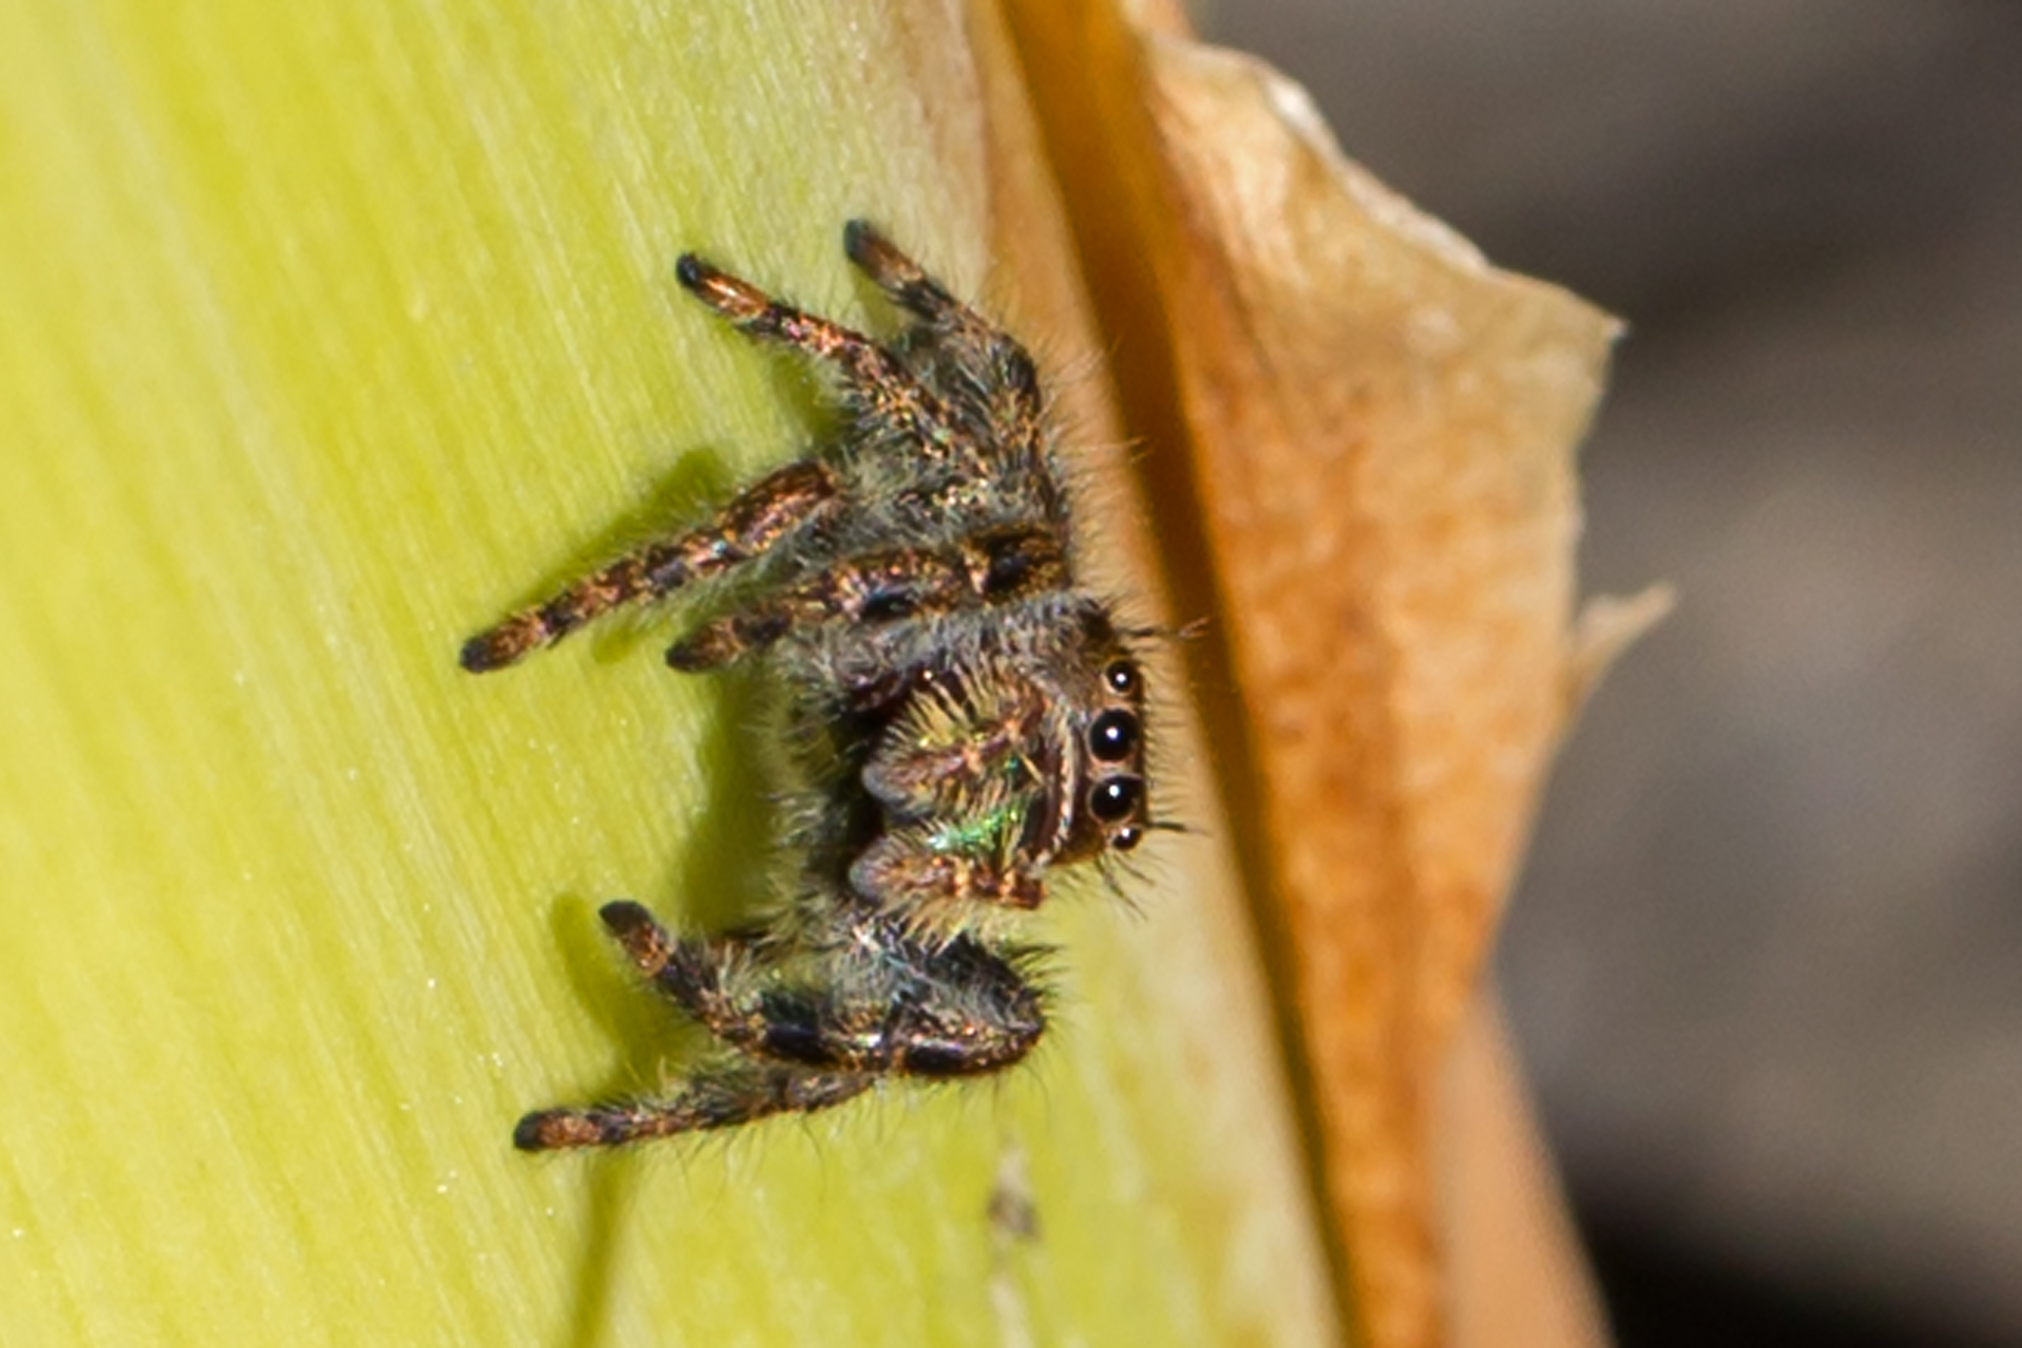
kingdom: Animalia
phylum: Arthropoda
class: Arachnida
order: Araneae
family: Salticidae
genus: Phidippus
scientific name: Phidippus audax
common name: Bold jumper
